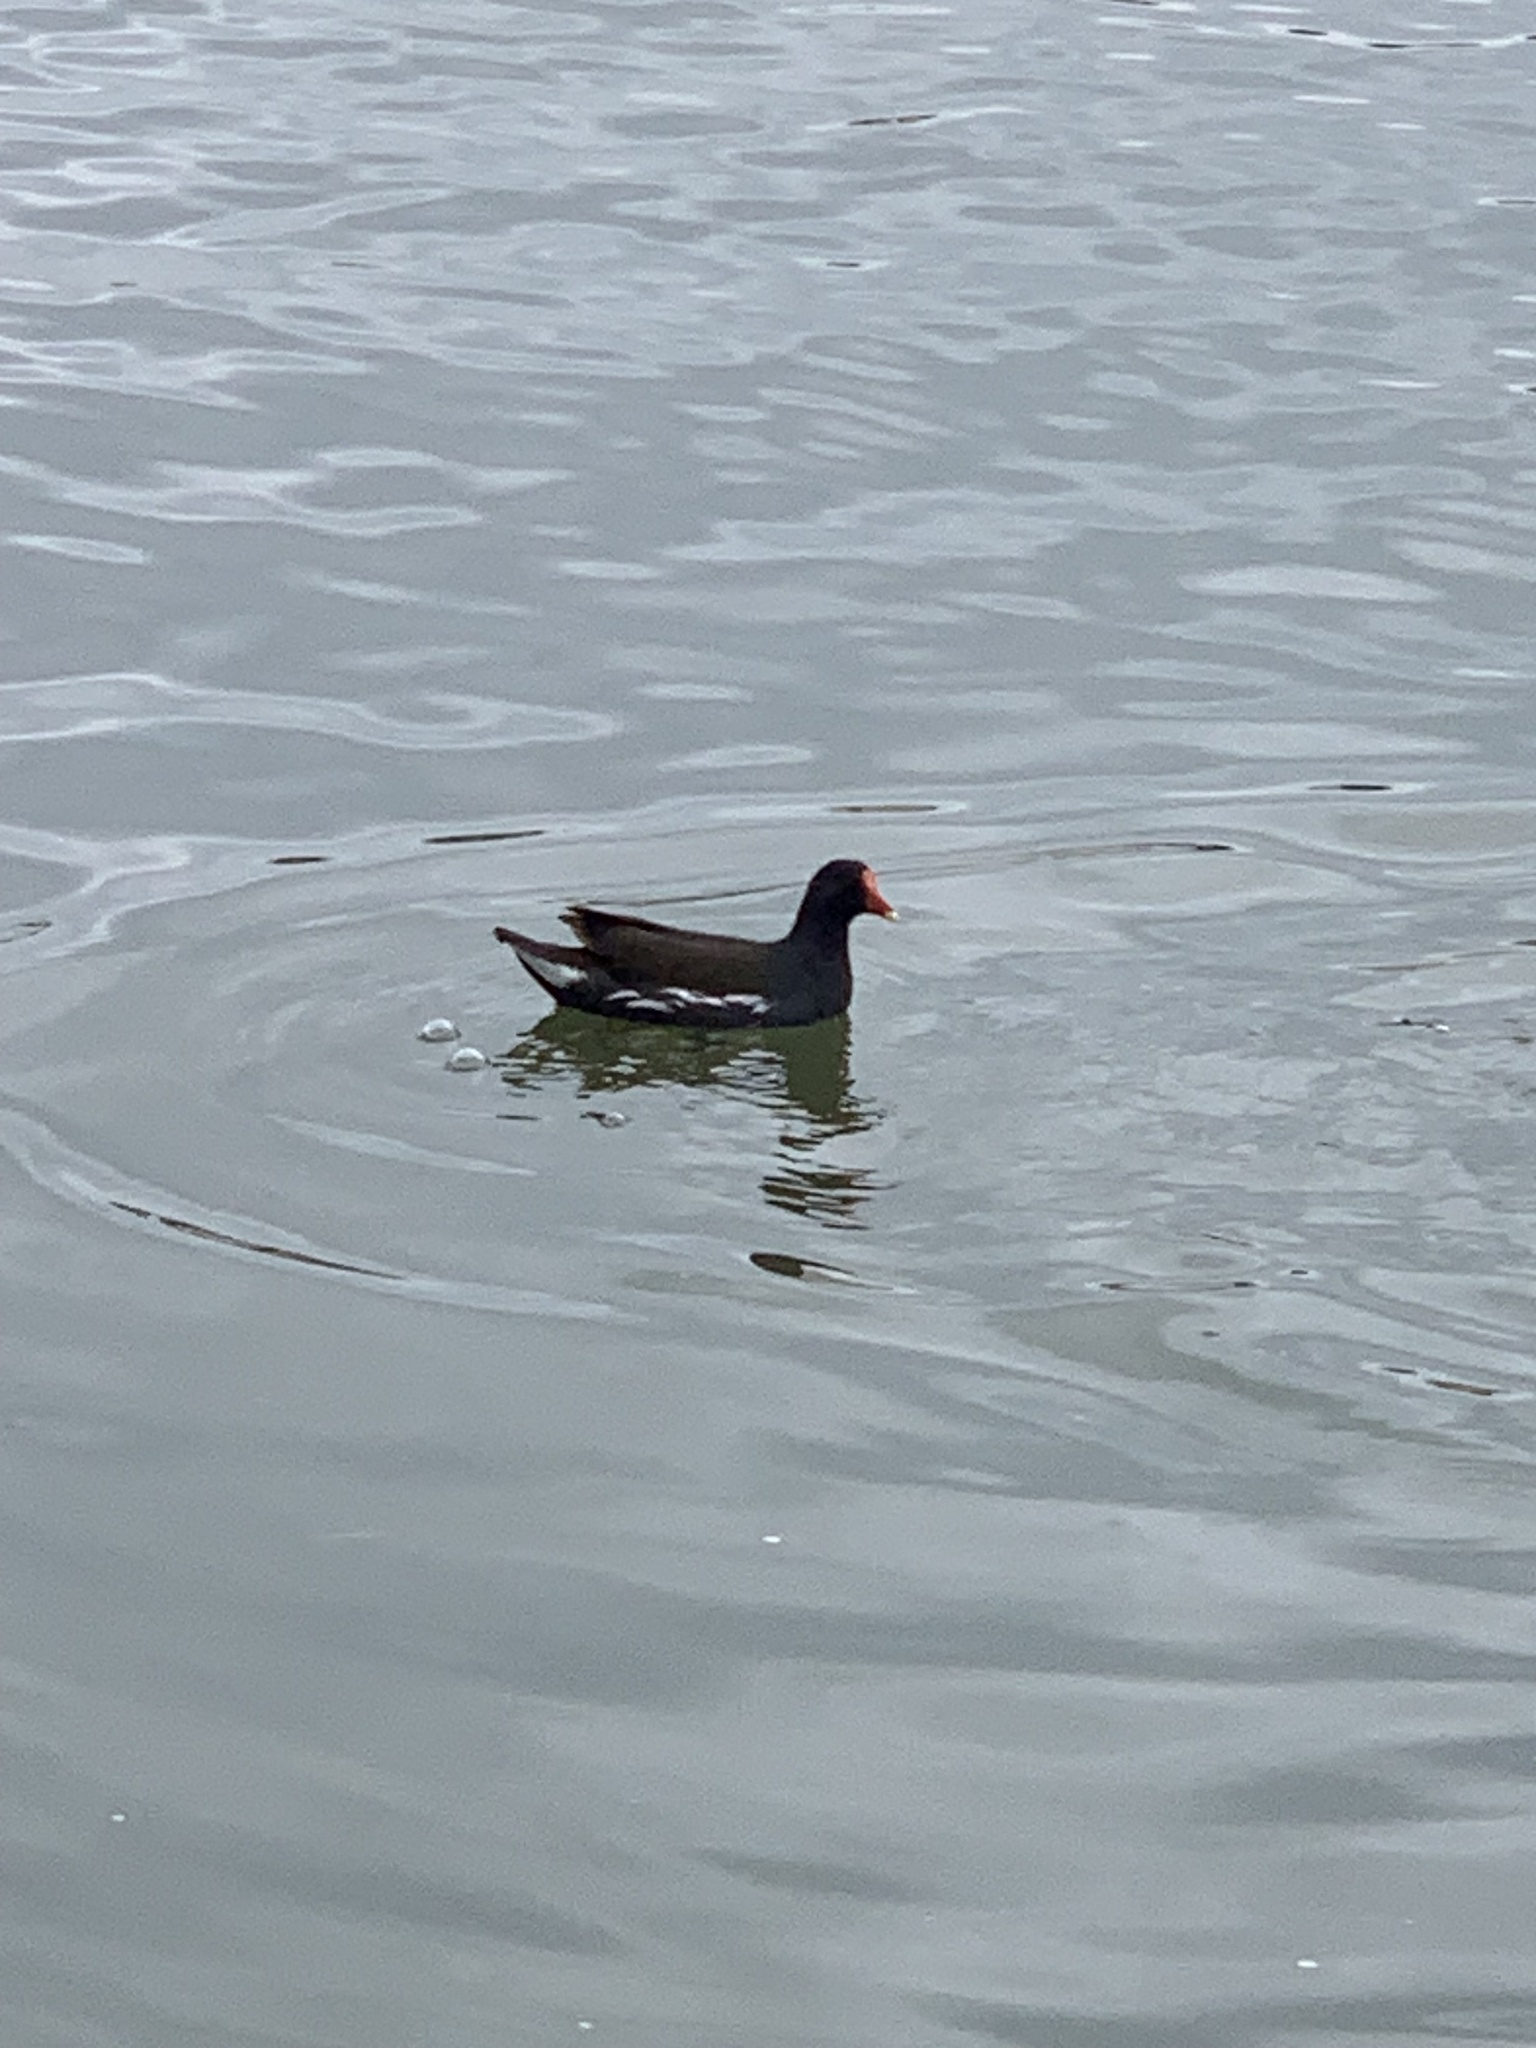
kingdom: Animalia
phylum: Chordata
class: Aves
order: Gruiformes
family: Rallidae
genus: Gallinula
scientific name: Gallinula chloropus
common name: Common moorhen
